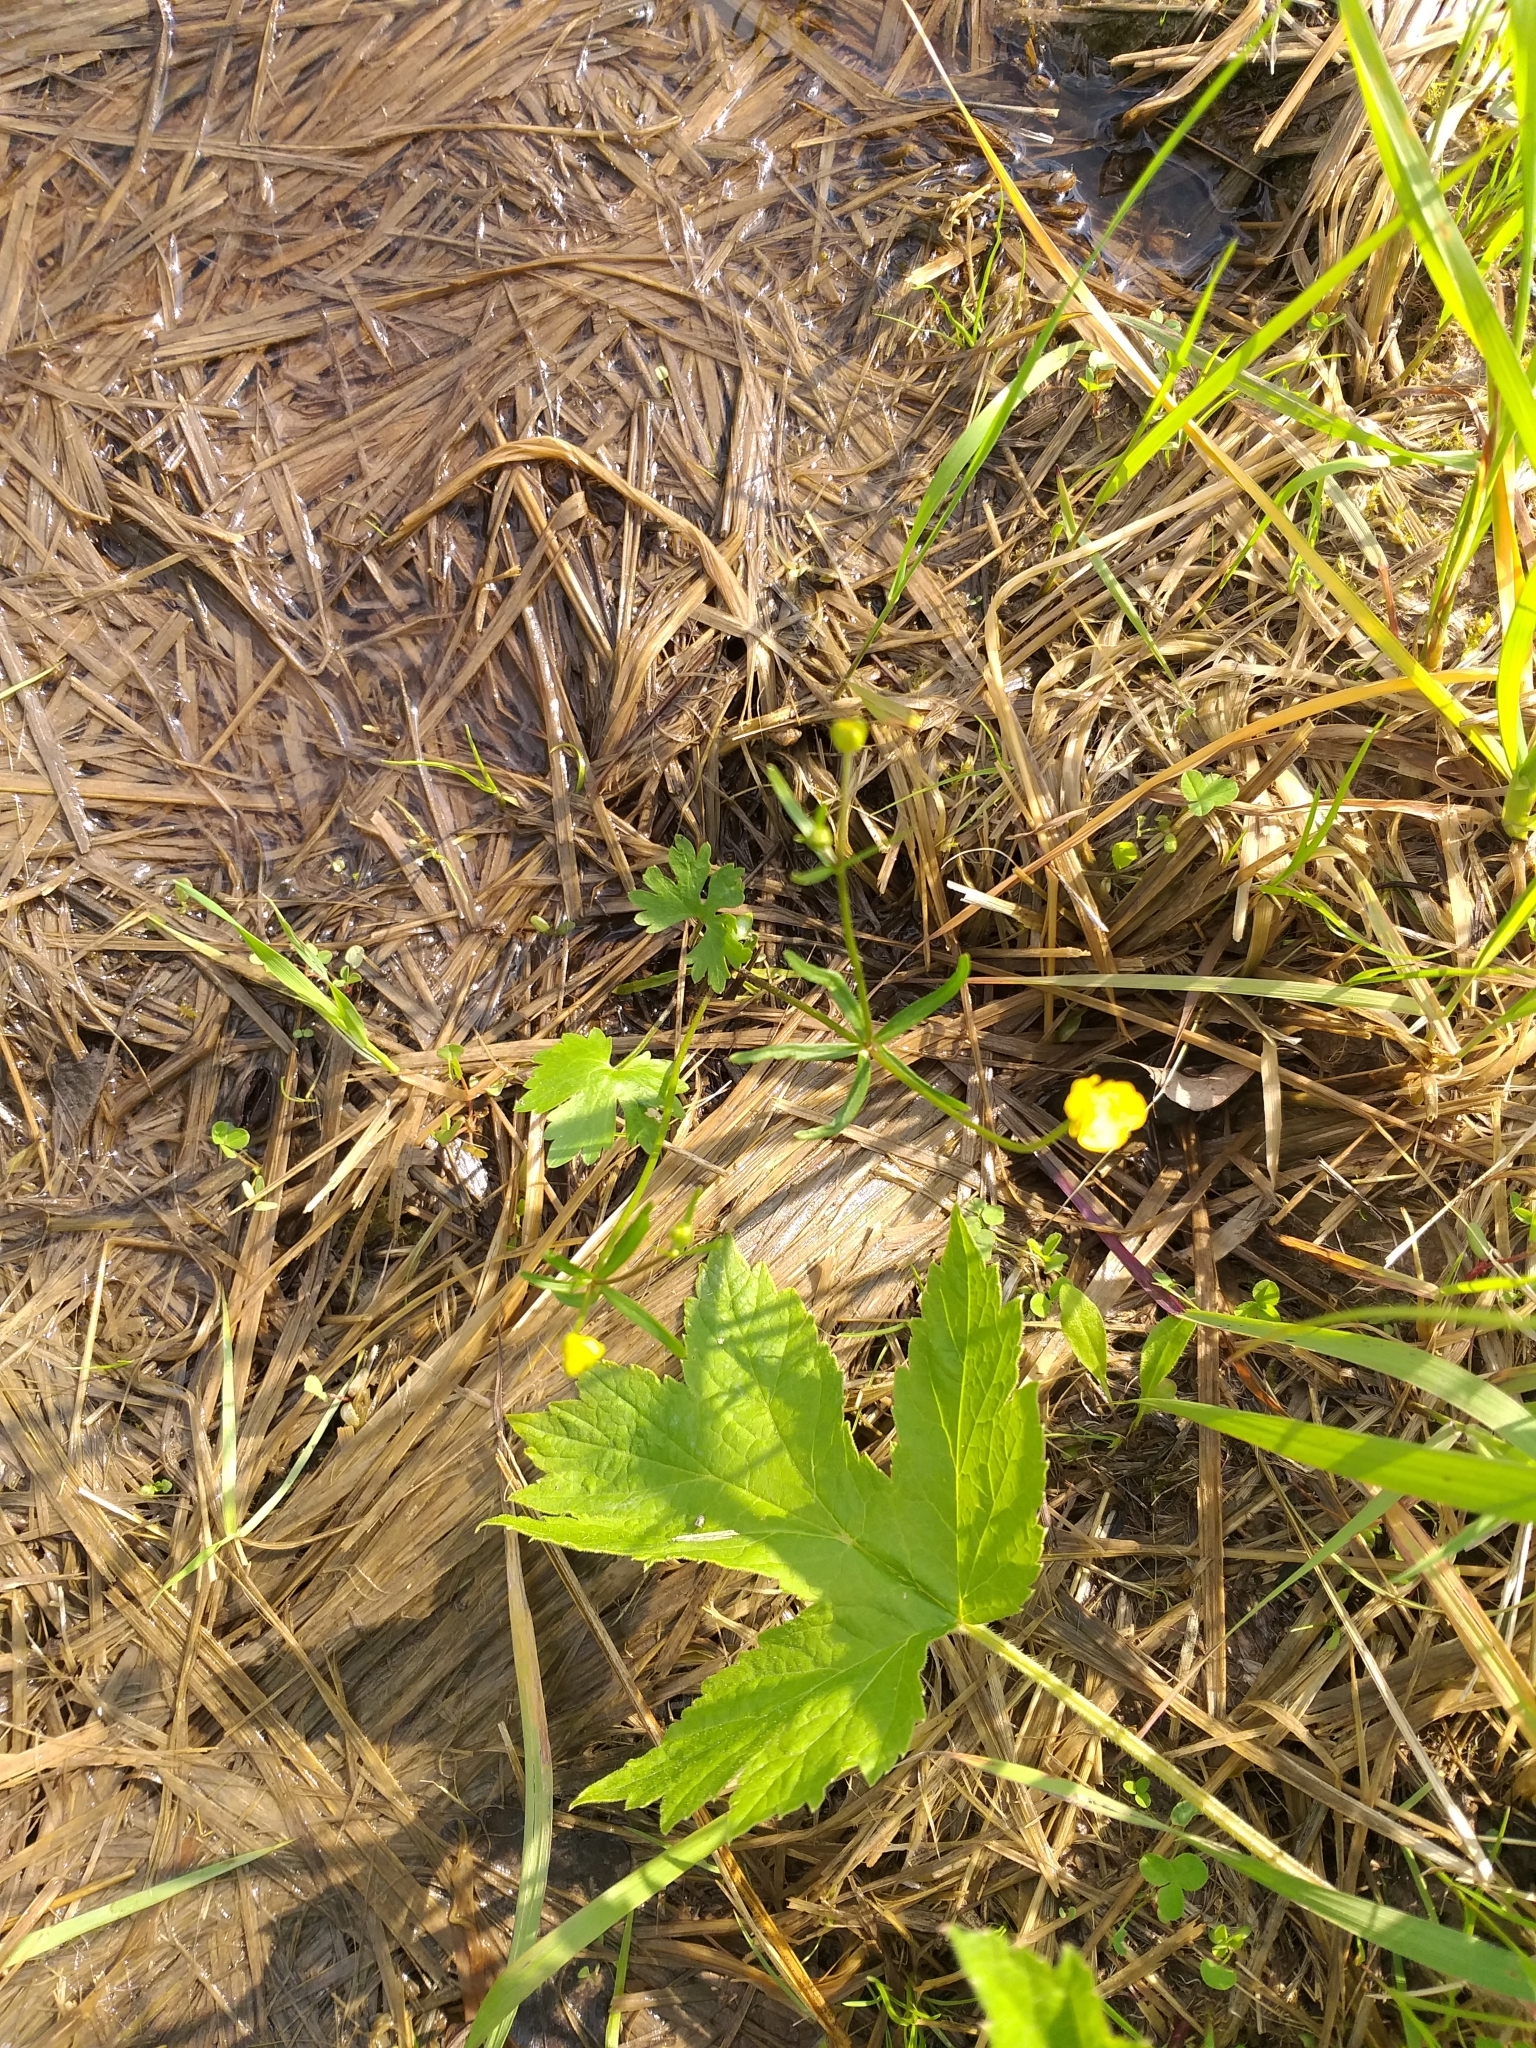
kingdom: Plantae
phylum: Tracheophyta
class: Magnoliopsida
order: Ranunculales
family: Ranunculaceae
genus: Ranunculus
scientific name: Ranunculus auricomus
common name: Goldilocks buttercup
